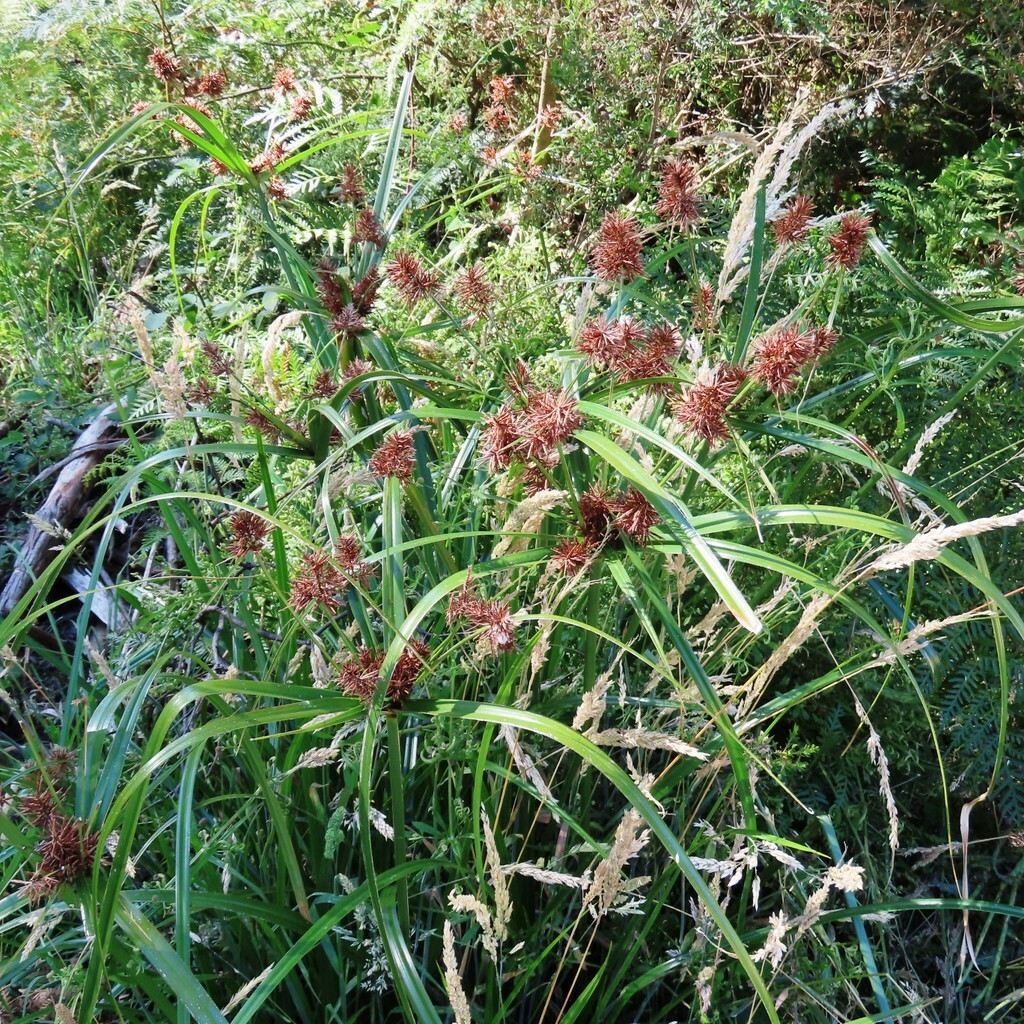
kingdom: Plantae
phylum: Tracheophyta
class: Liliopsida
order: Poales
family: Cyperaceae
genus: Cyperus
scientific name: Cyperus lucidus
